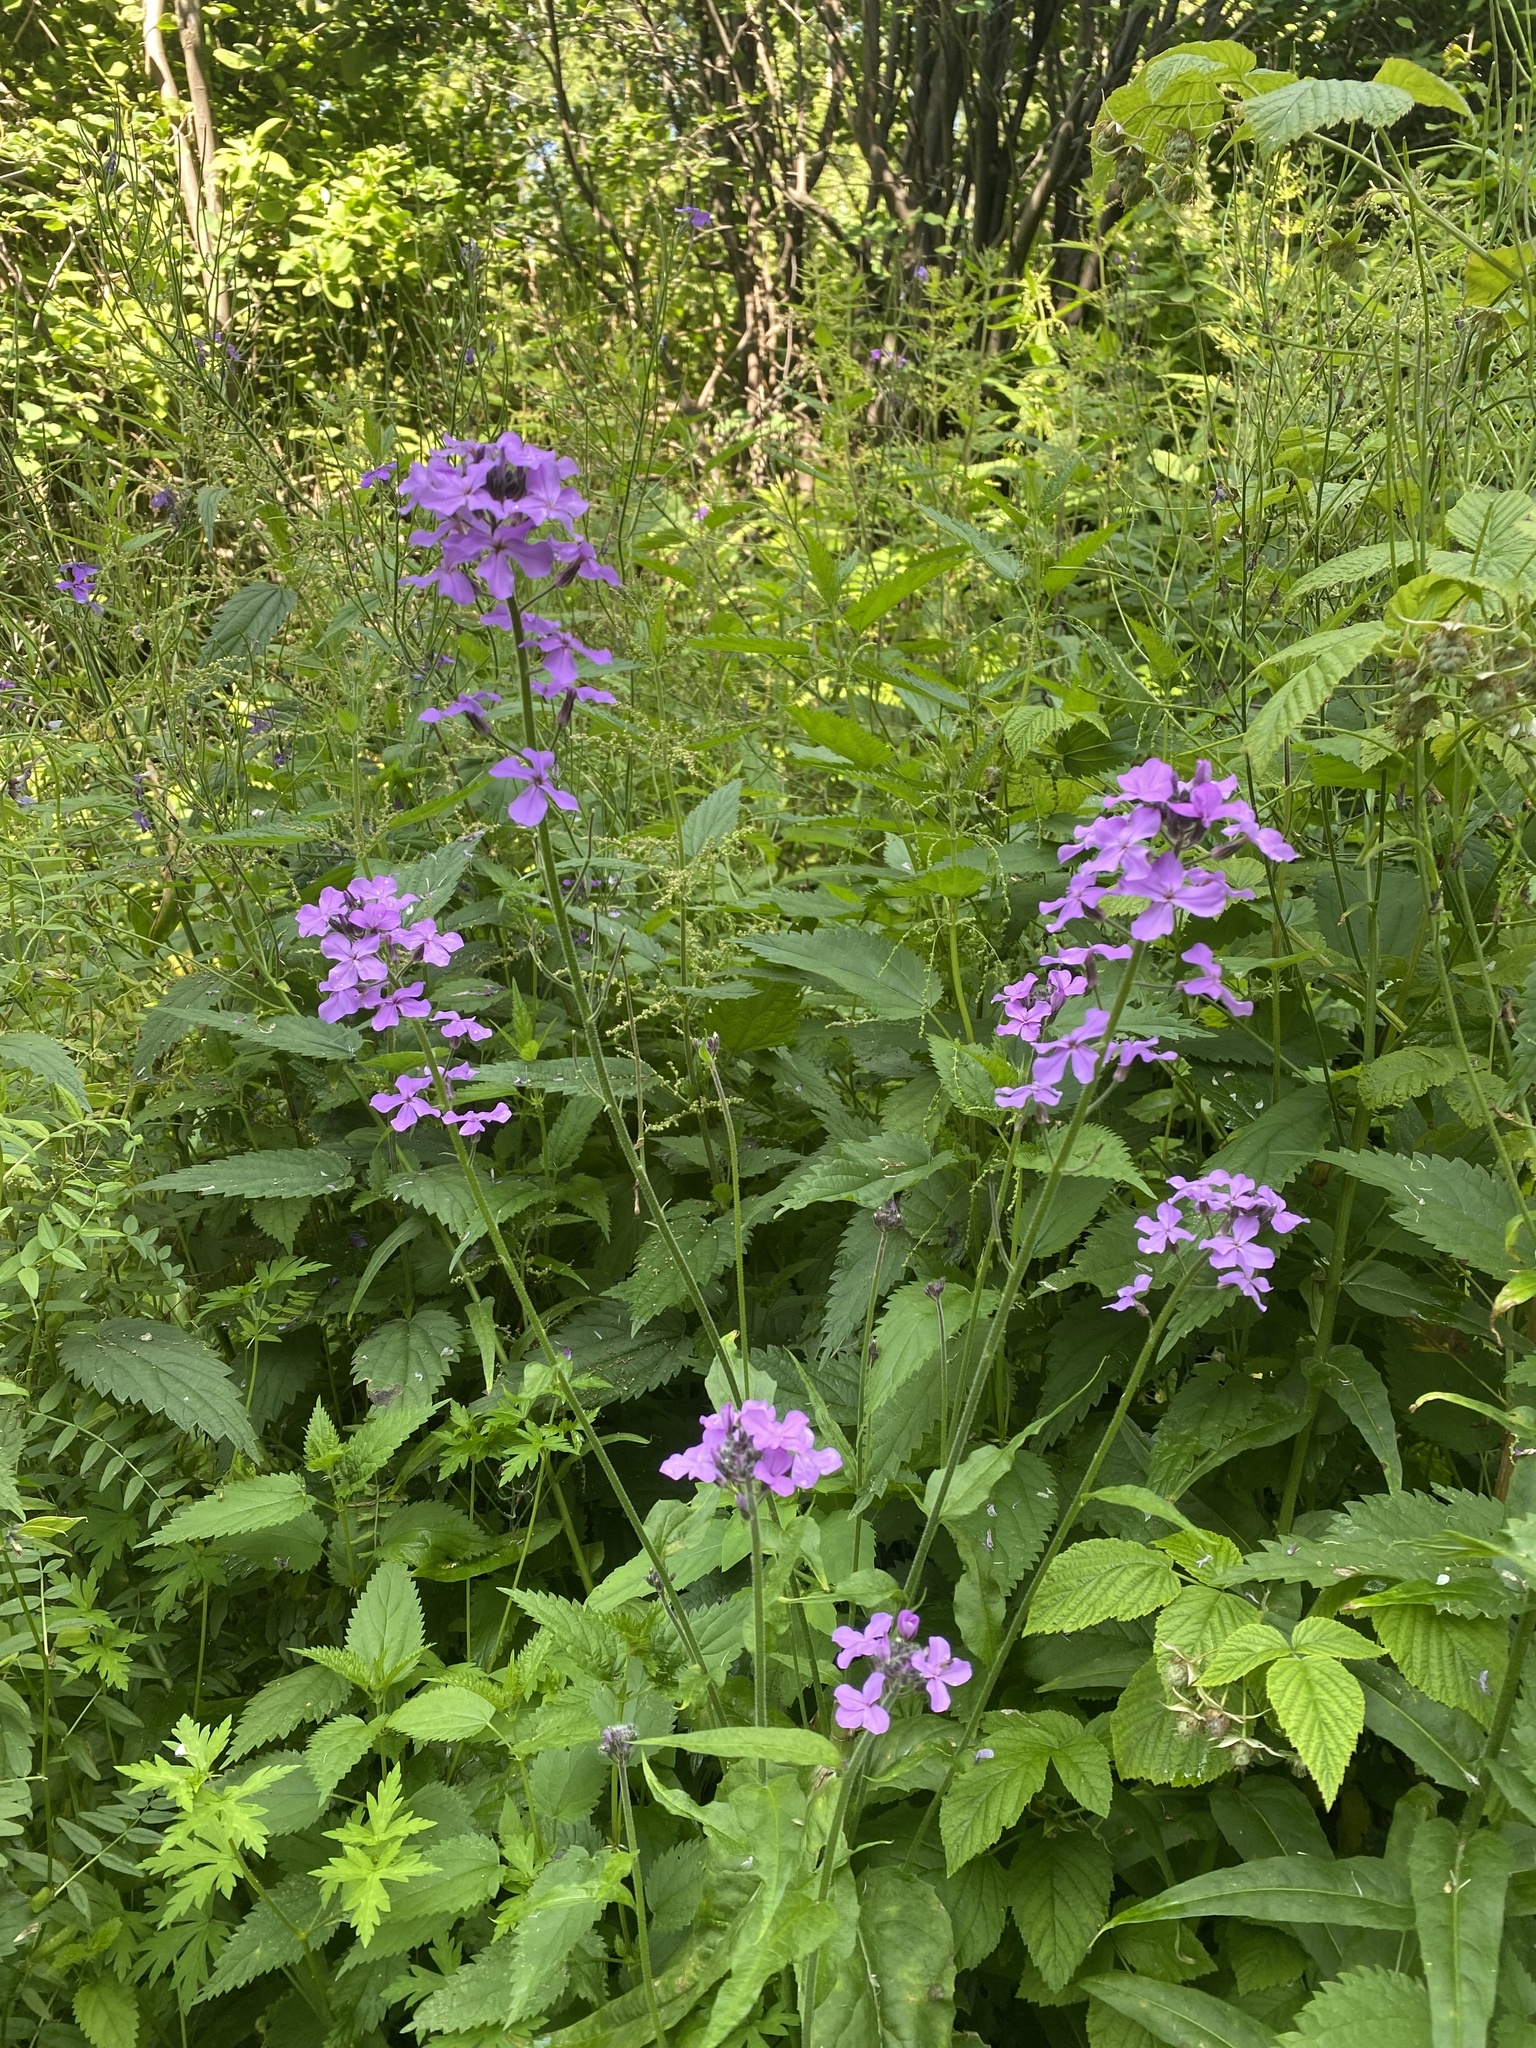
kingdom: Plantae
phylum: Tracheophyta
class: Magnoliopsida
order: Brassicales
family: Brassicaceae
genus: Hesperis
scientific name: Hesperis sibirica
